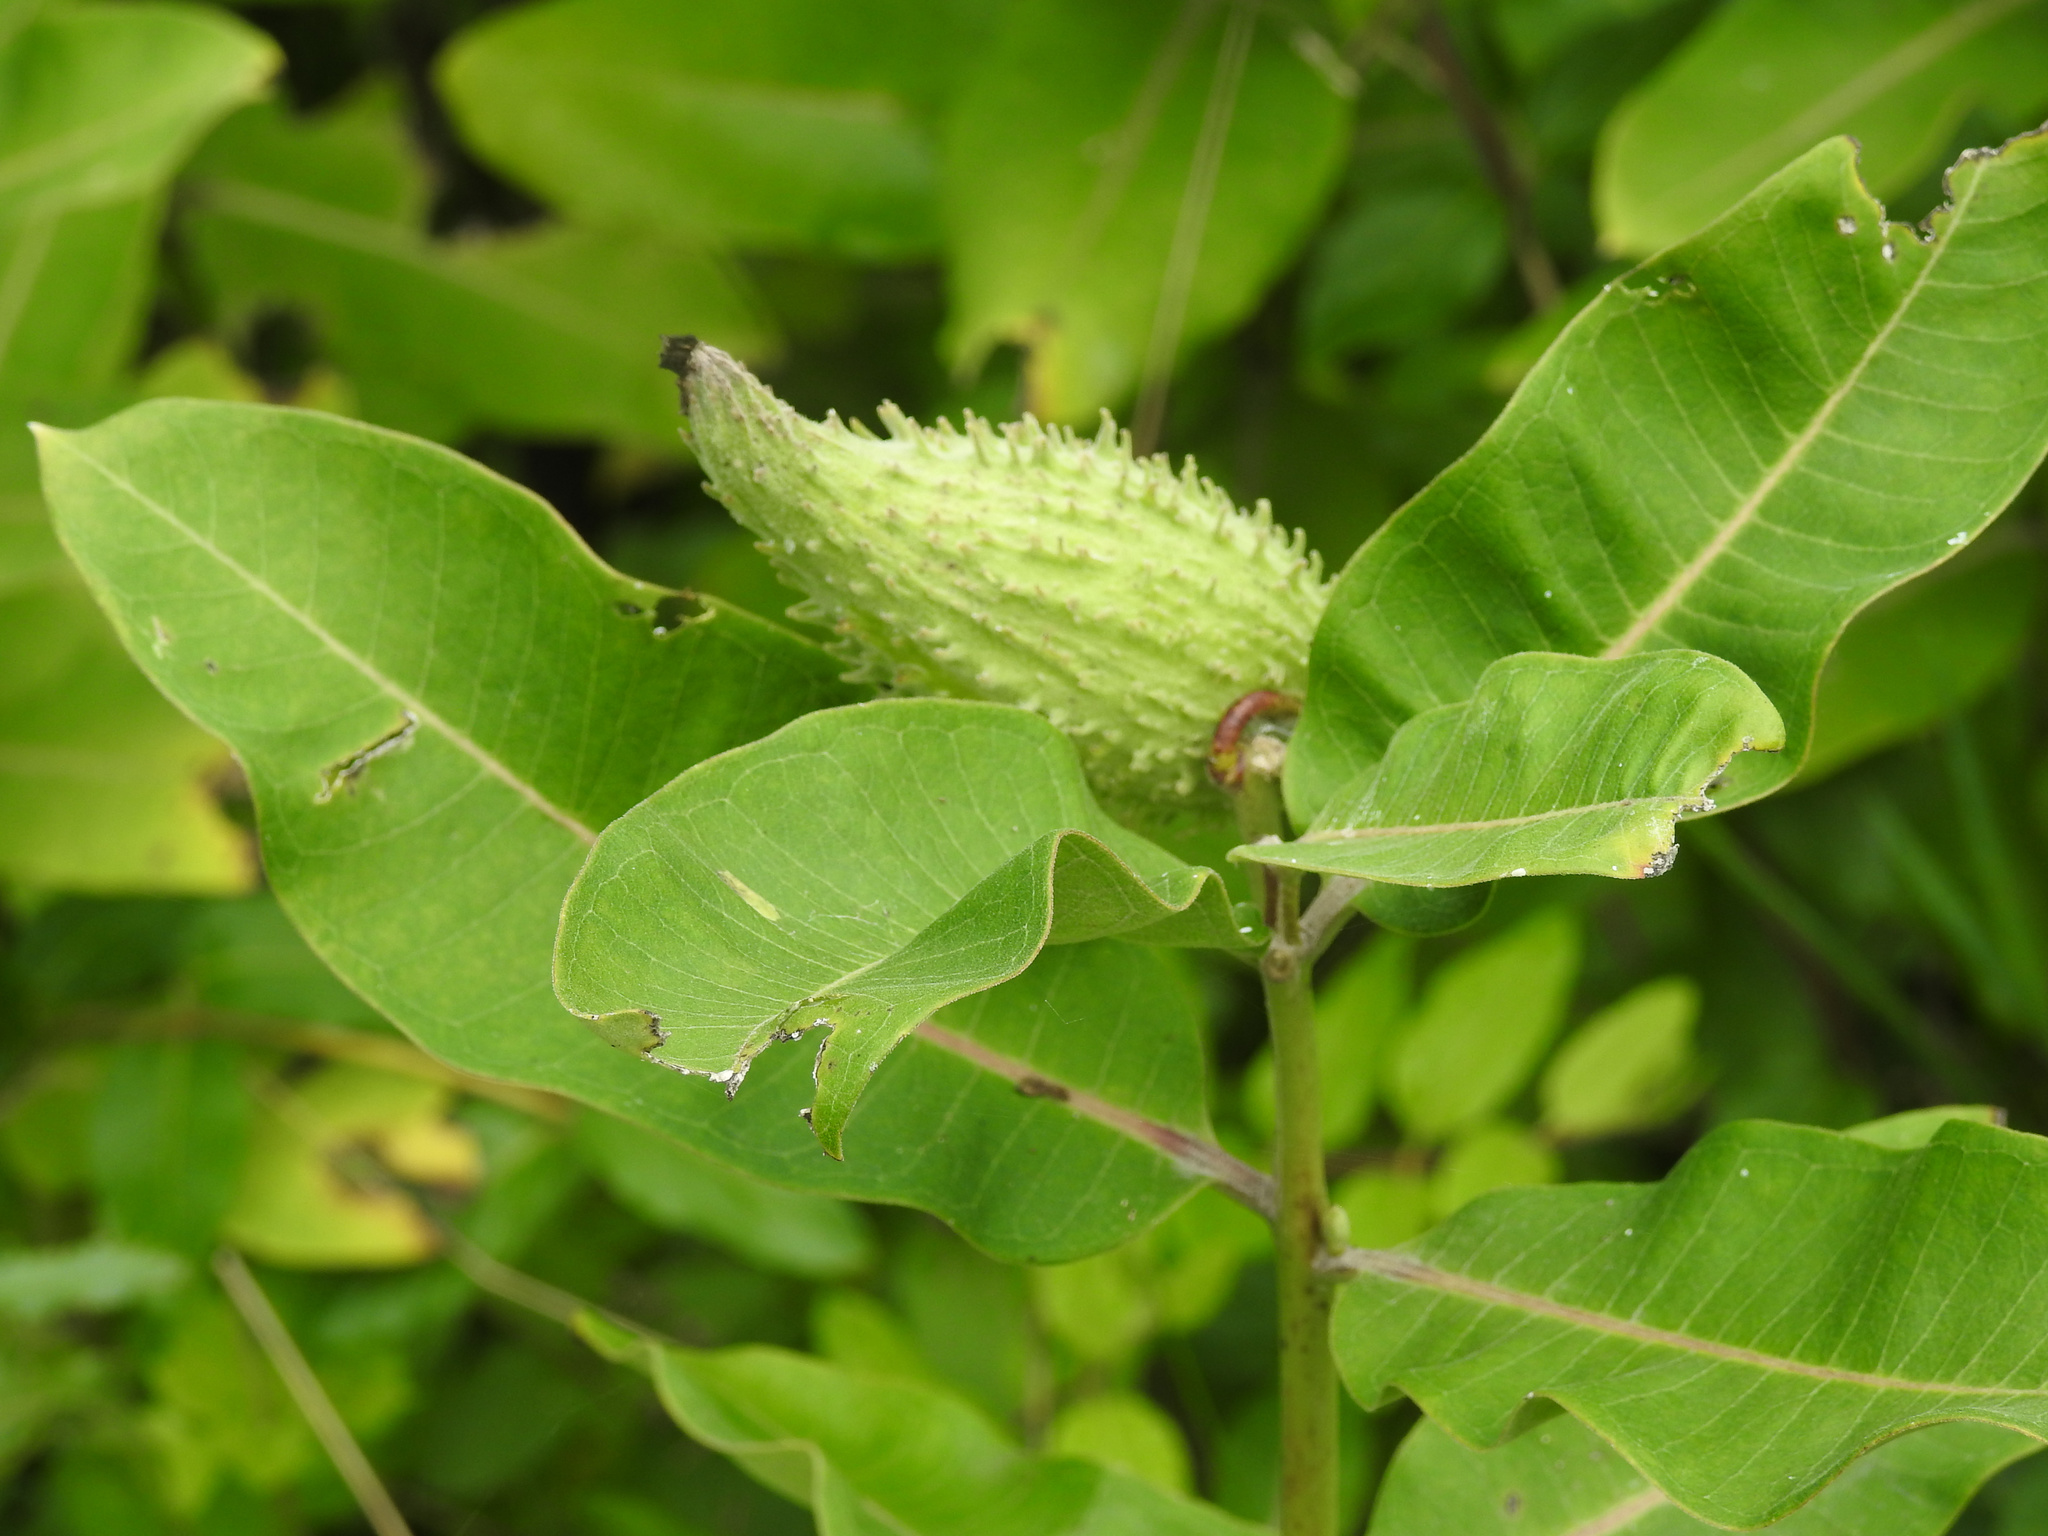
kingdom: Plantae
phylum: Tracheophyta
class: Magnoliopsida
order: Gentianales
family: Apocynaceae
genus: Asclepias
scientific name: Asclepias syriaca
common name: Common milkweed
